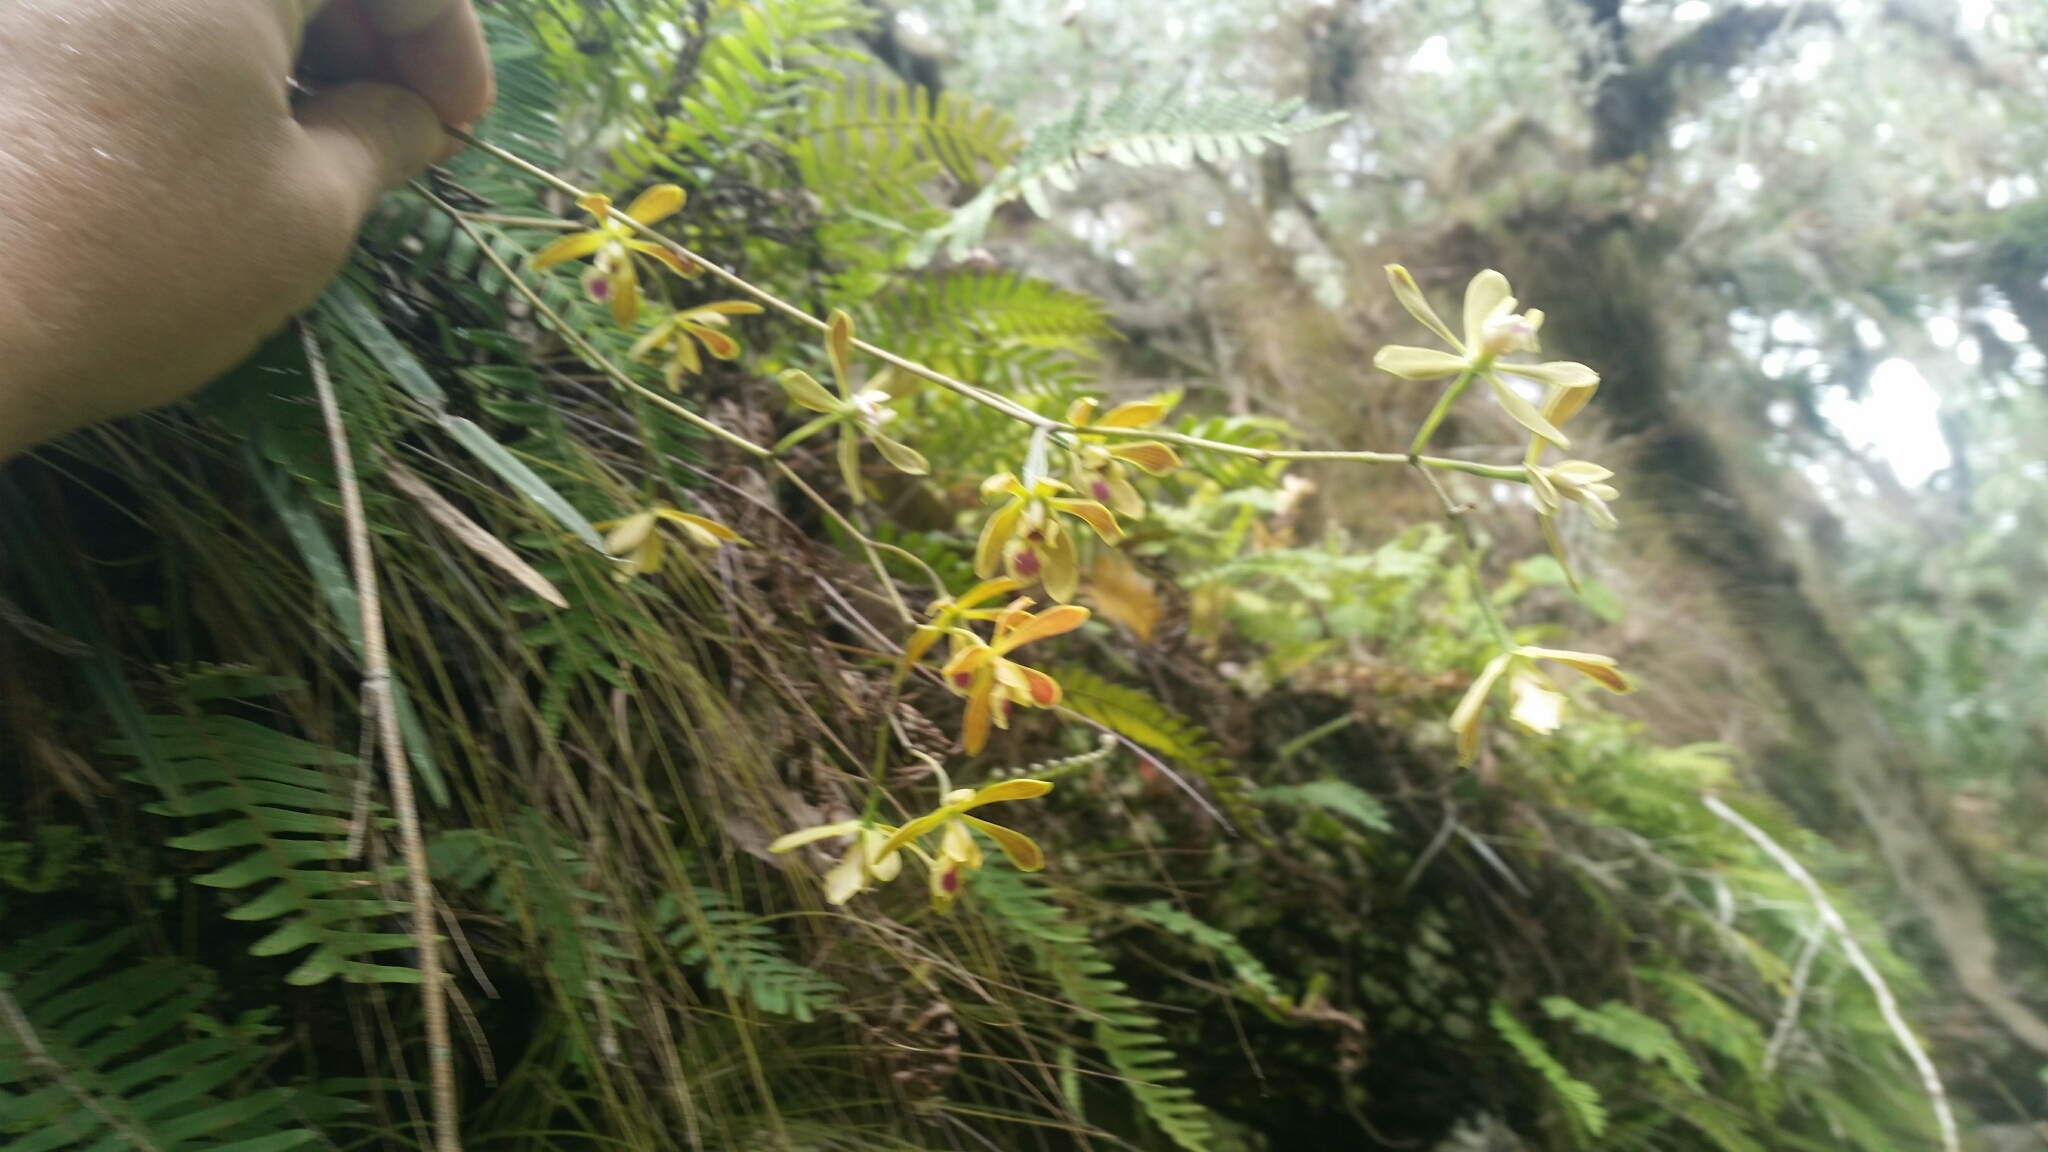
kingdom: Plantae
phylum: Tracheophyta
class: Liliopsida
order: Asparagales
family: Orchidaceae
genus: Encyclia
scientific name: Encyclia tampensis
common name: Florida butterfly orchid
